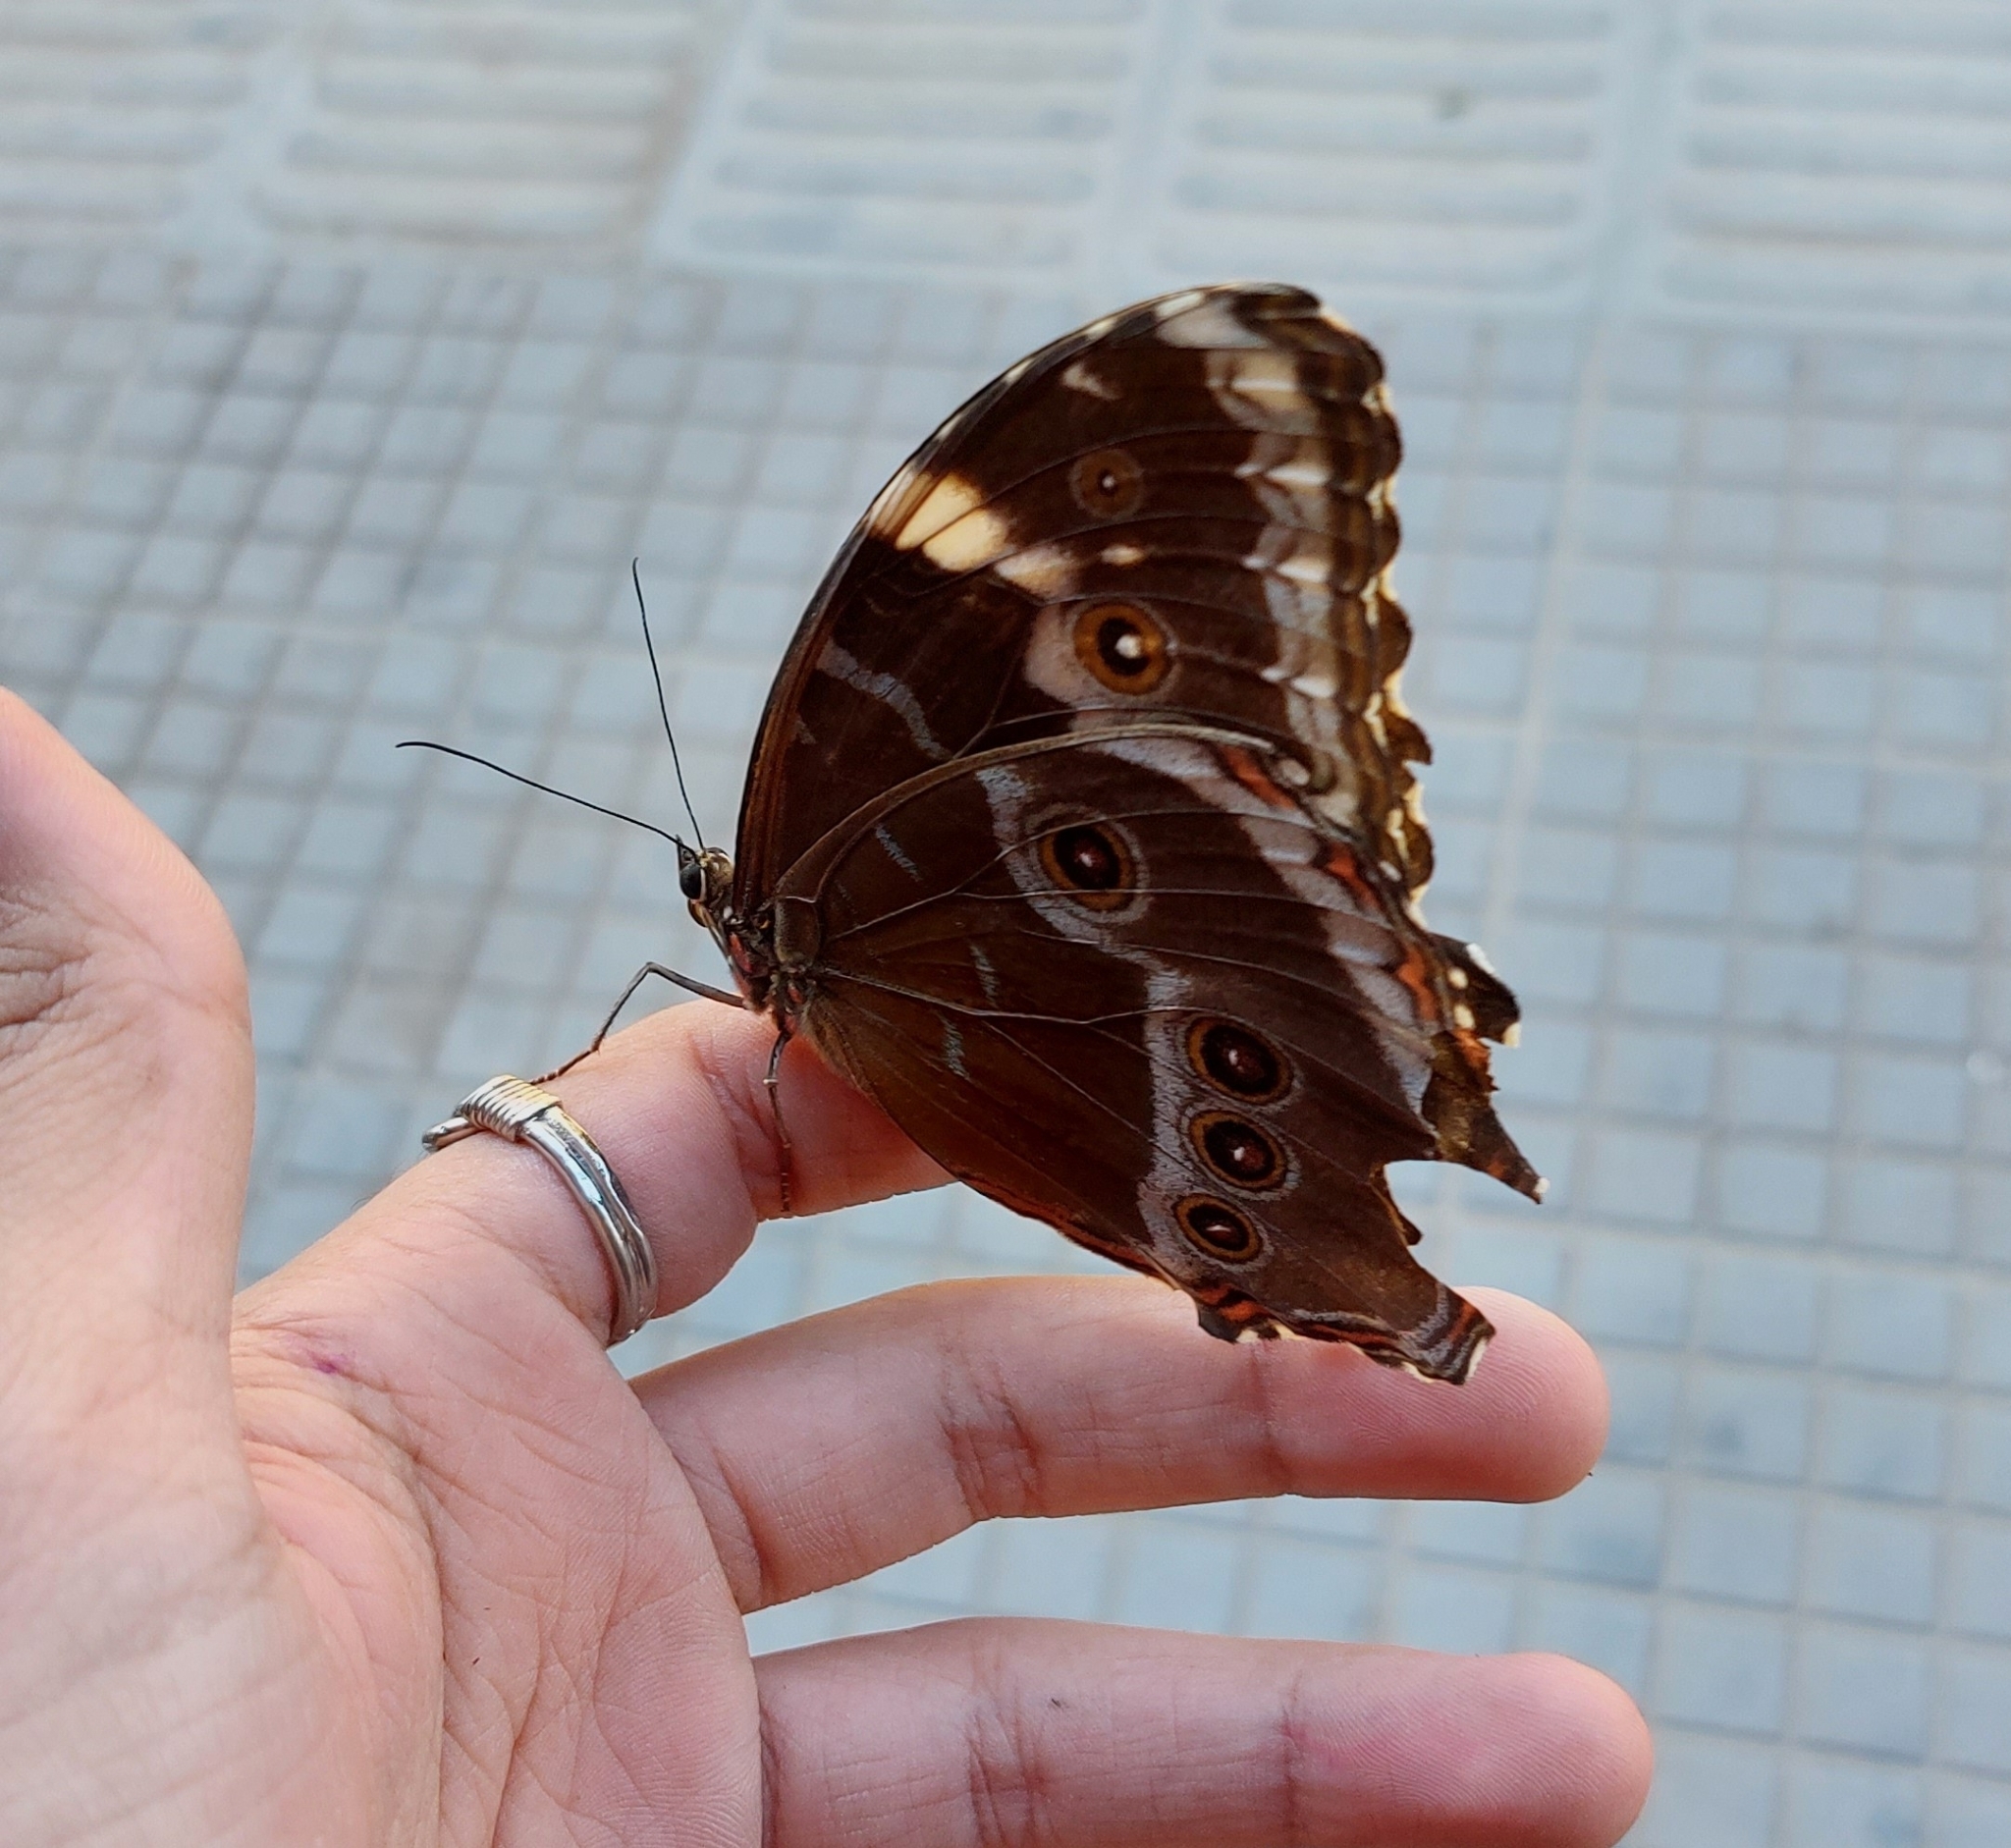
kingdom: Animalia
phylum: Arthropoda
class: Insecta
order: Lepidoptera
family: Nymphalidae
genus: Morpho
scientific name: Morpho helenor
